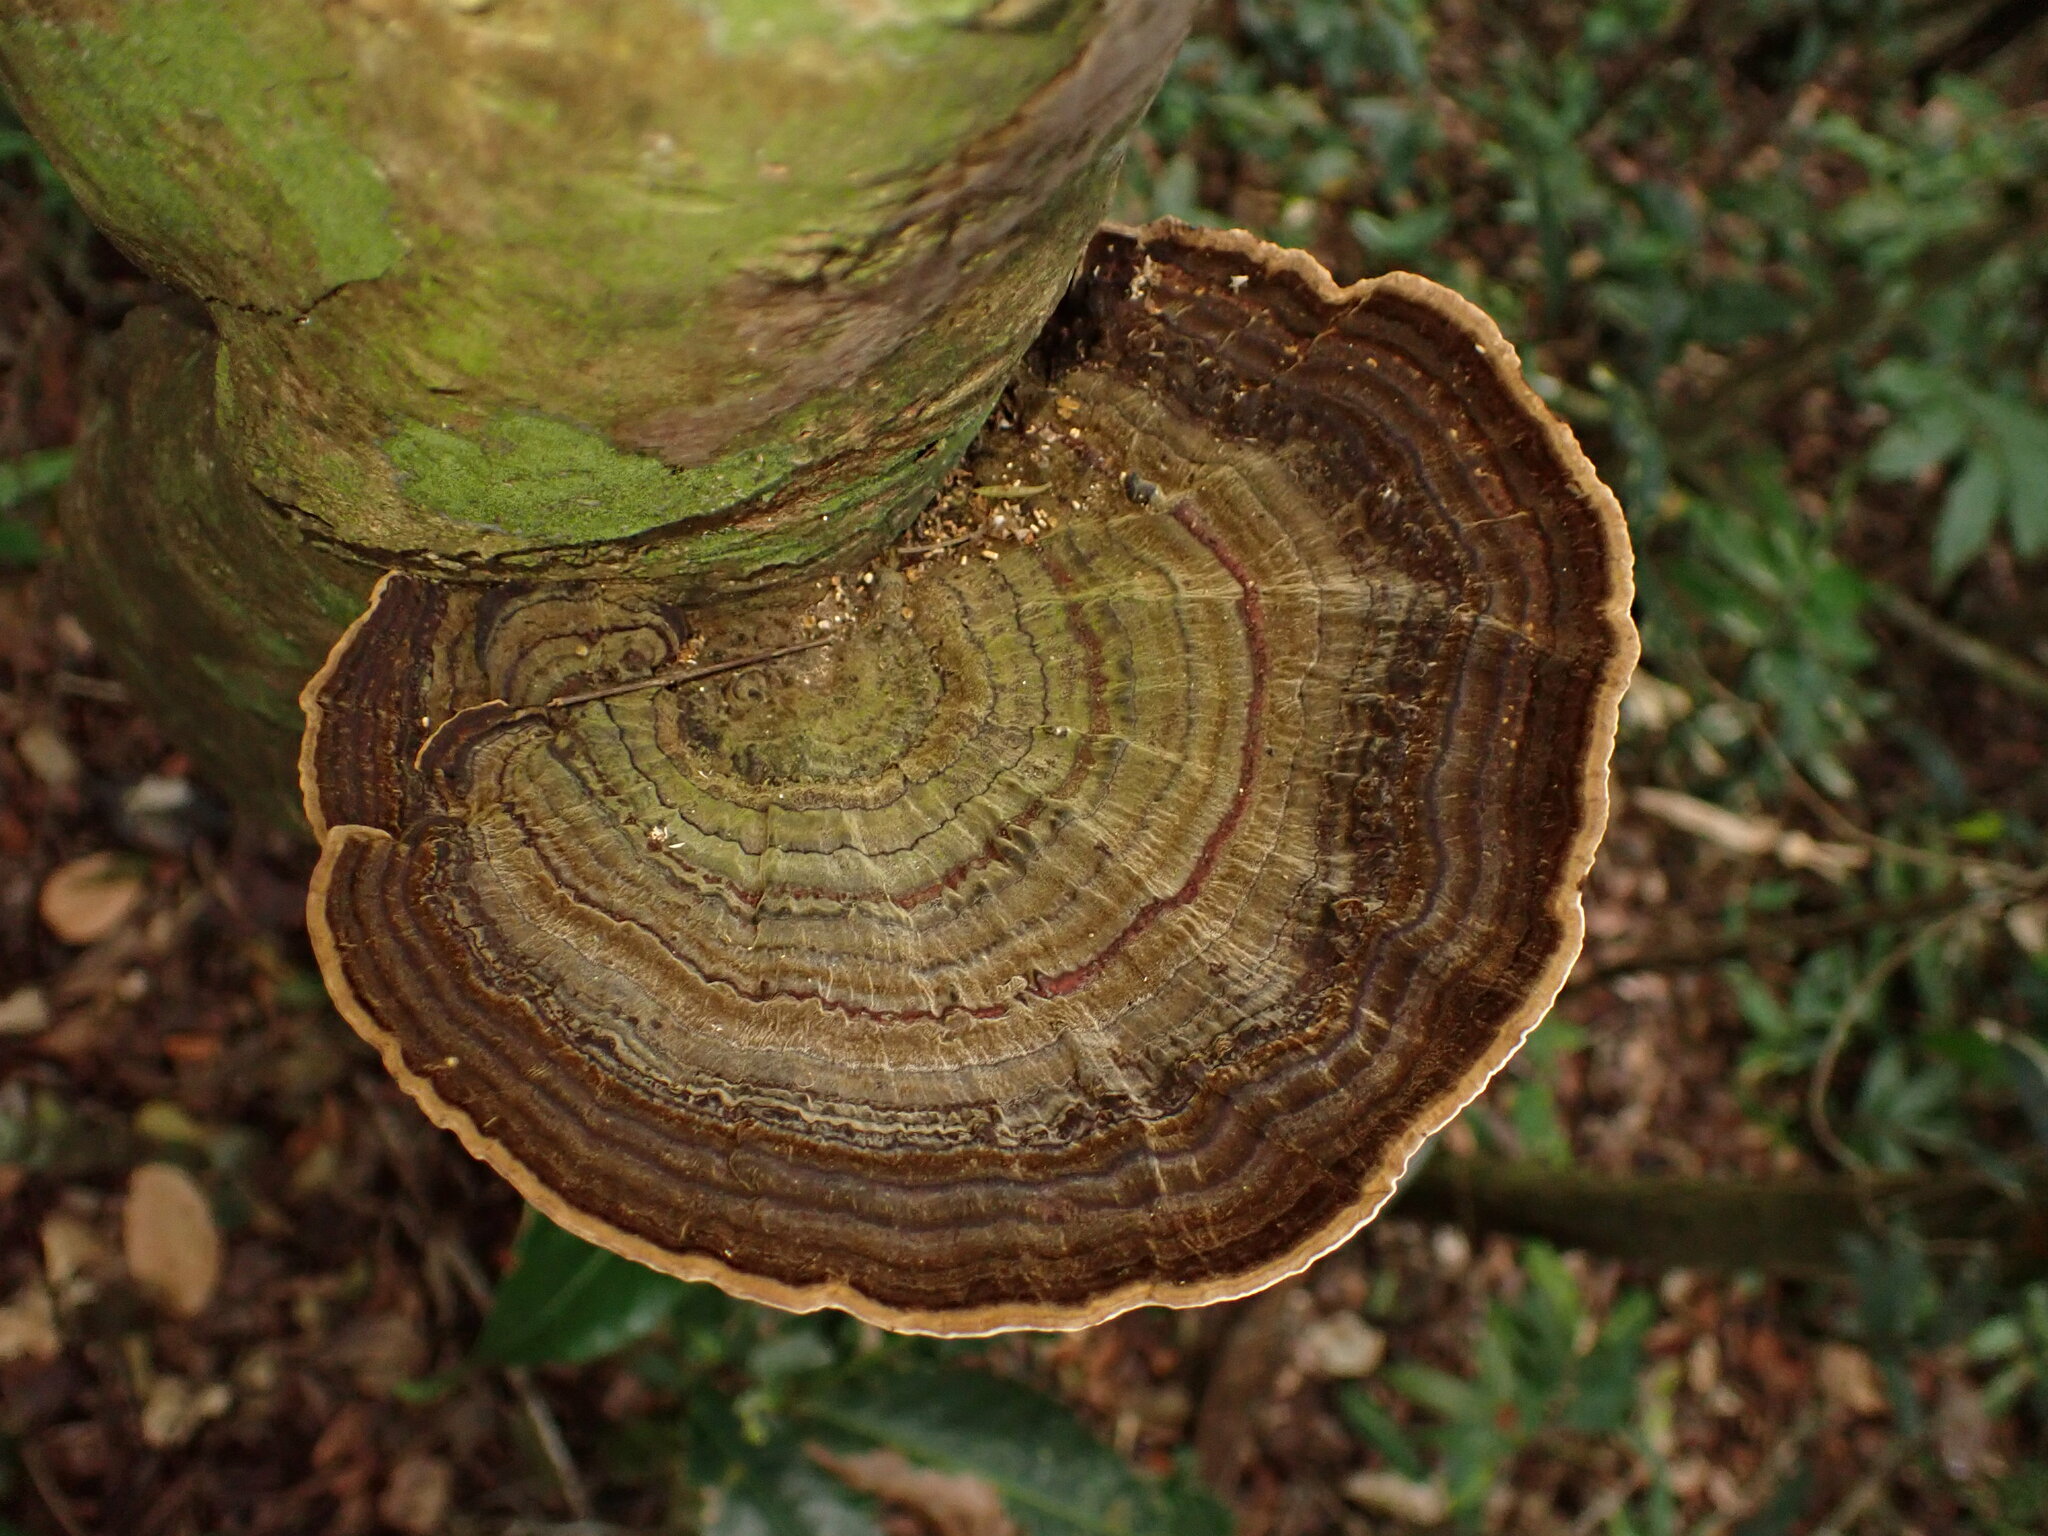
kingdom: Fungi
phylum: Basidiomycota
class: Agaricomycetes
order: Polyporales
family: Polyporaceae
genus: Trametes
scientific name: Trametes variegata
